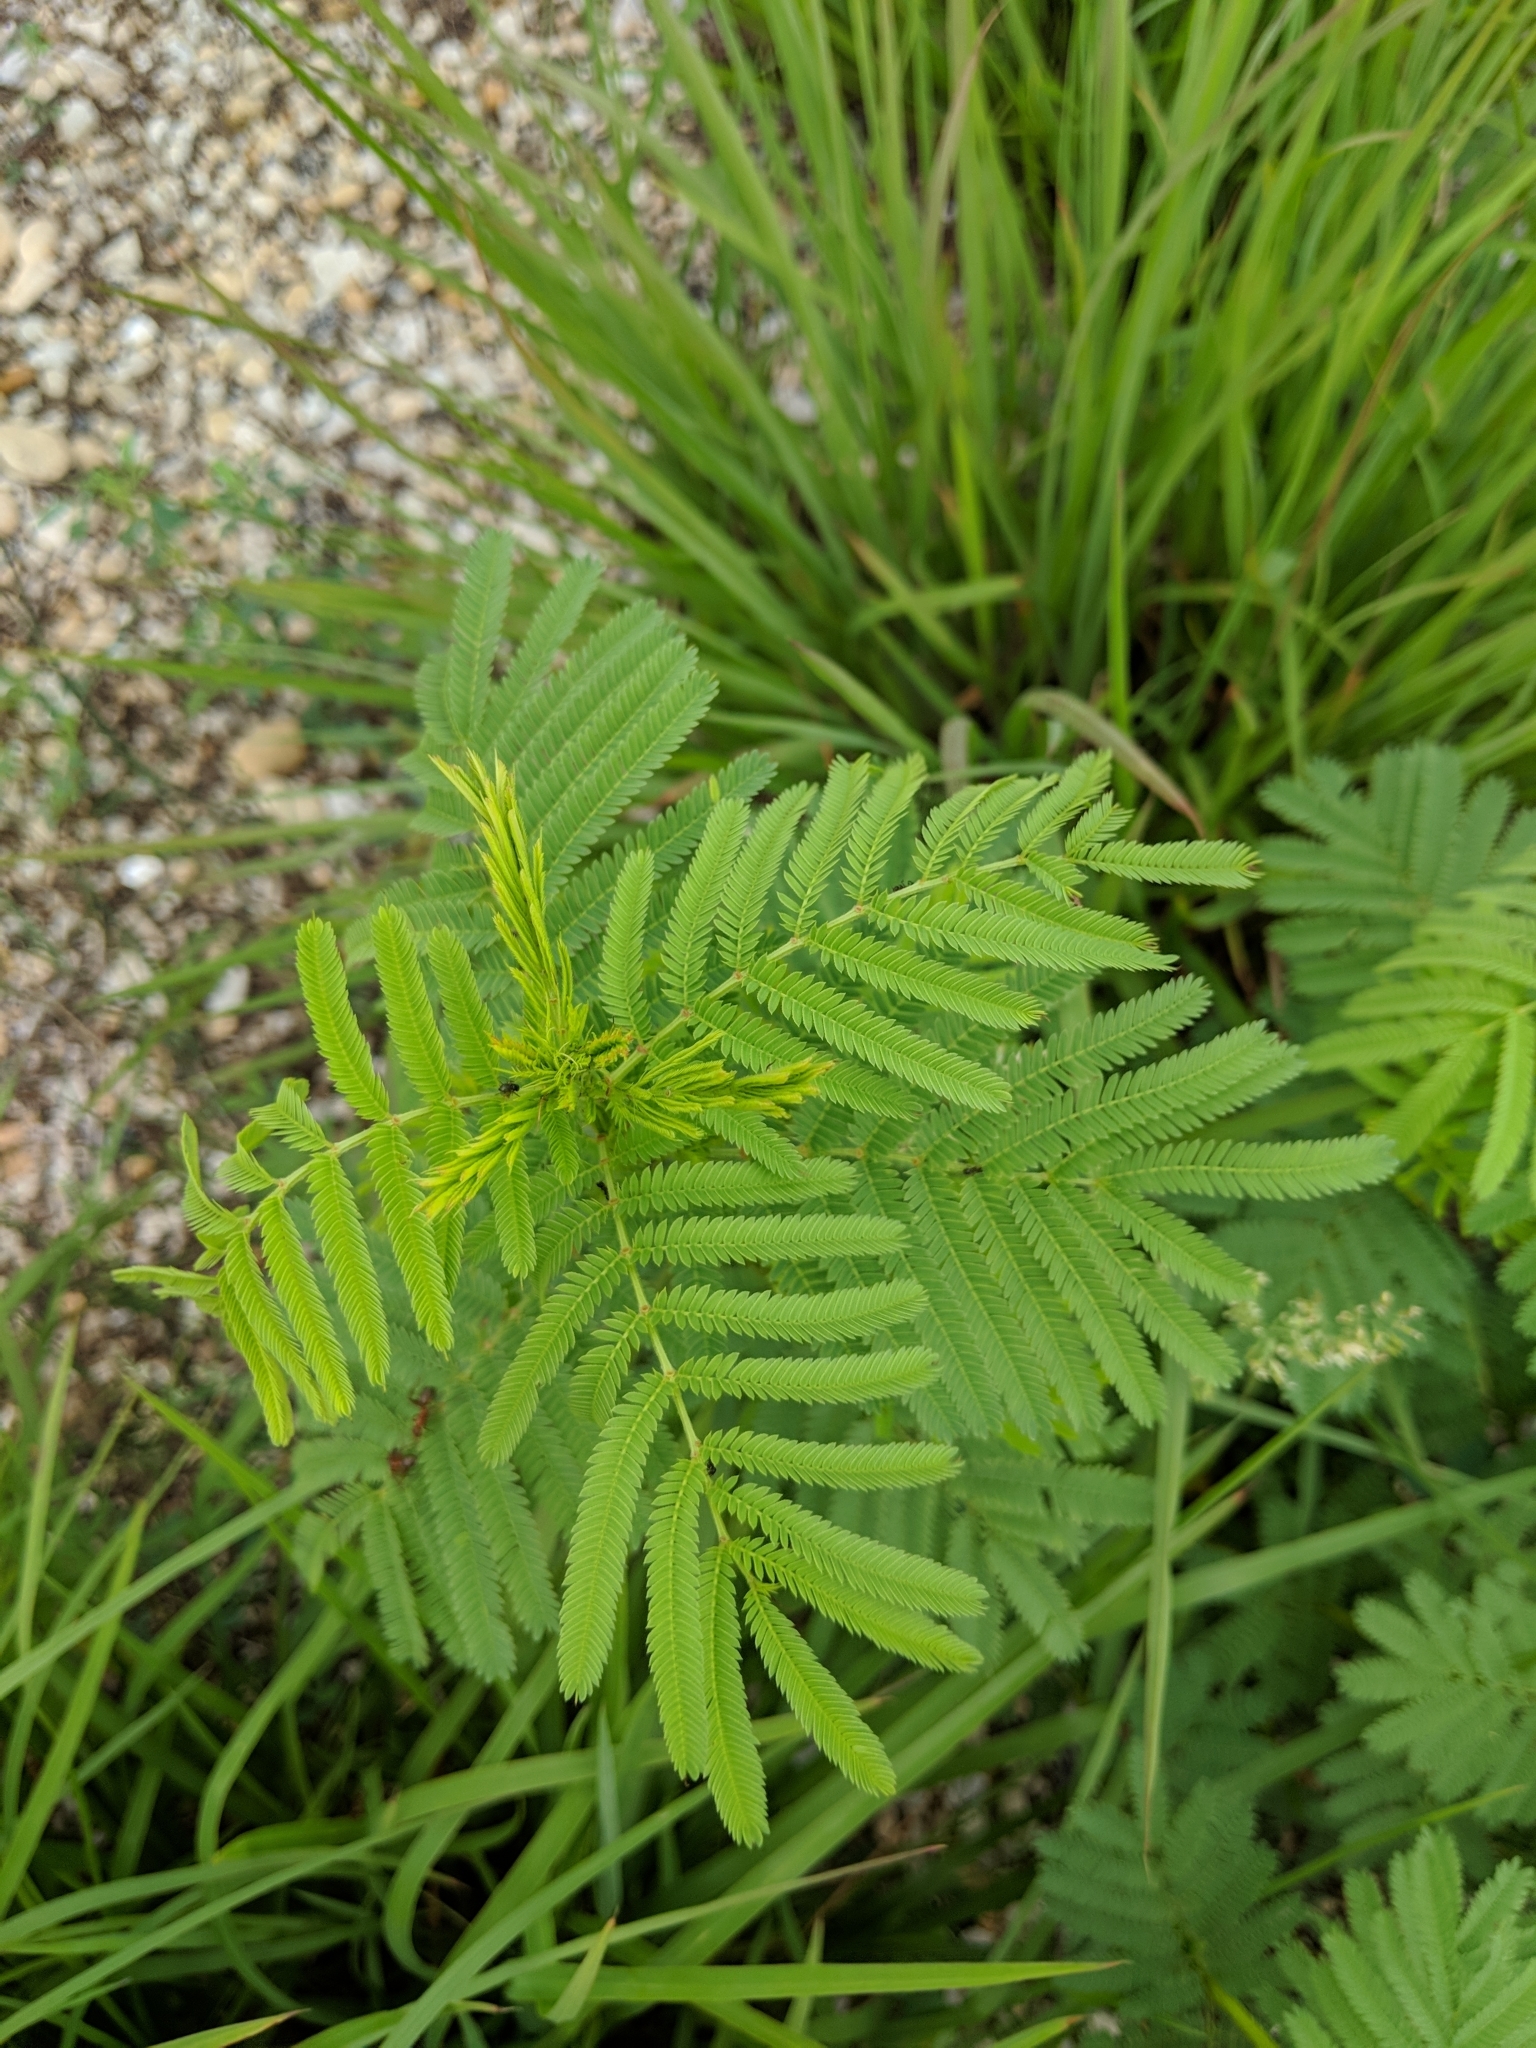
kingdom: Plantae
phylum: Tracheophyta
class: Magnoliopsida
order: Fabales
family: Fabaceae
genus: Desmanthus
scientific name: Desmanthus illinoensis
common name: Illinois bundle-flower
